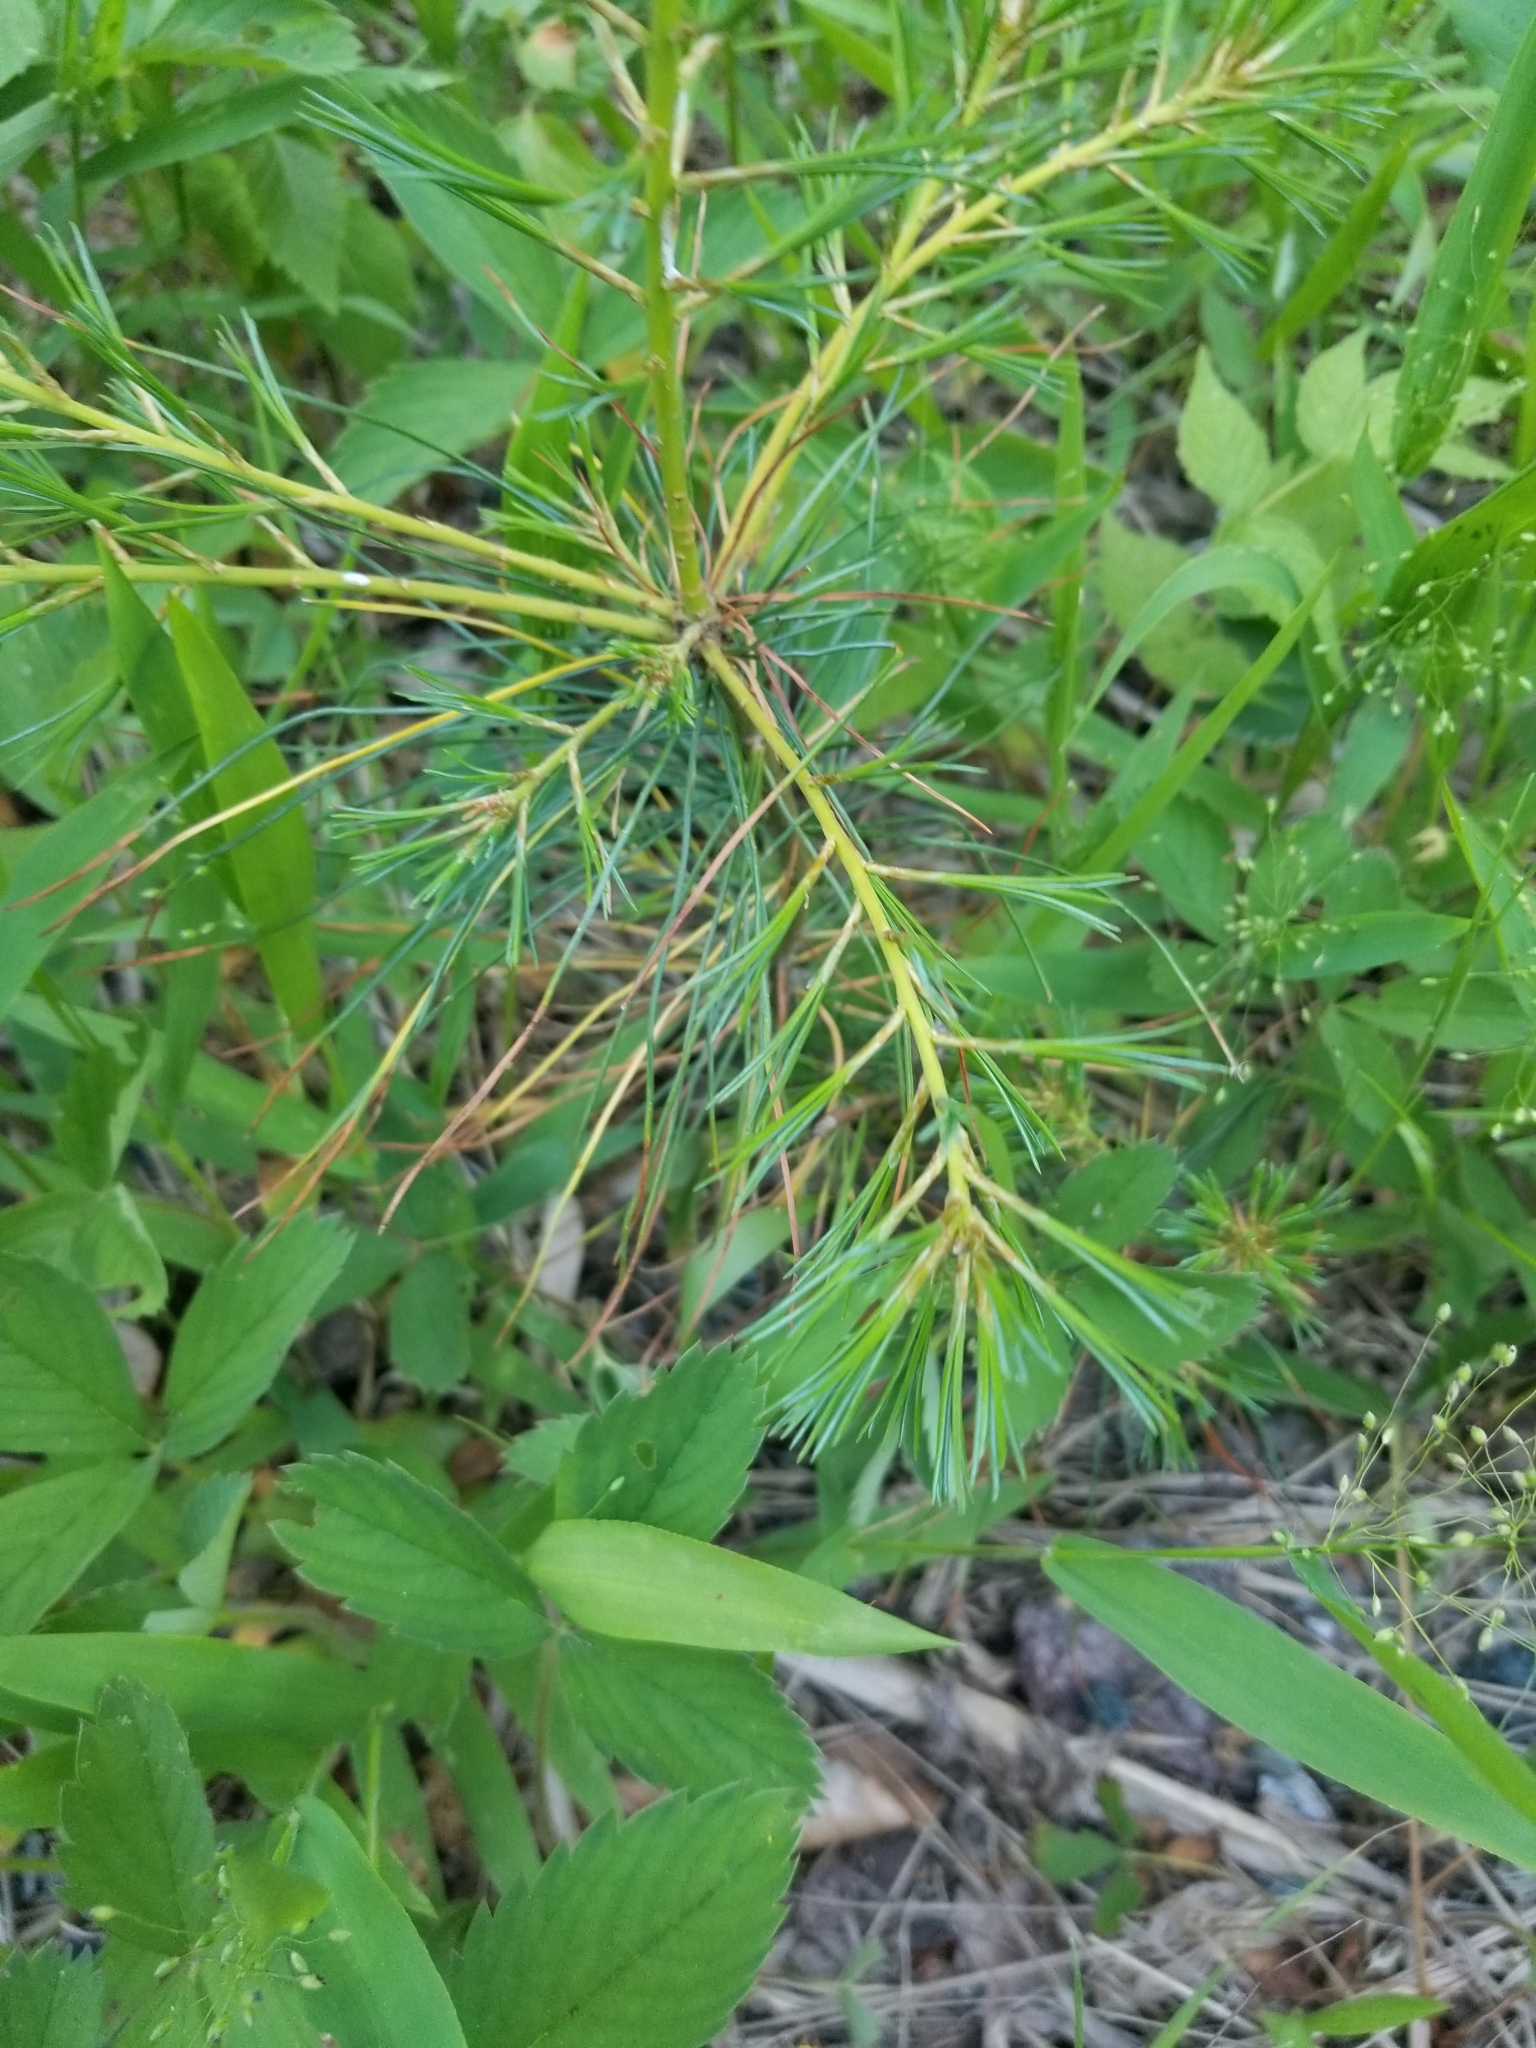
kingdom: Plantae
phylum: Tracheophyta
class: Pinopsida
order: Pinales
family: Pinaceae
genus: Pinus
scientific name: Pinus strobus
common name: Weymouth pine
